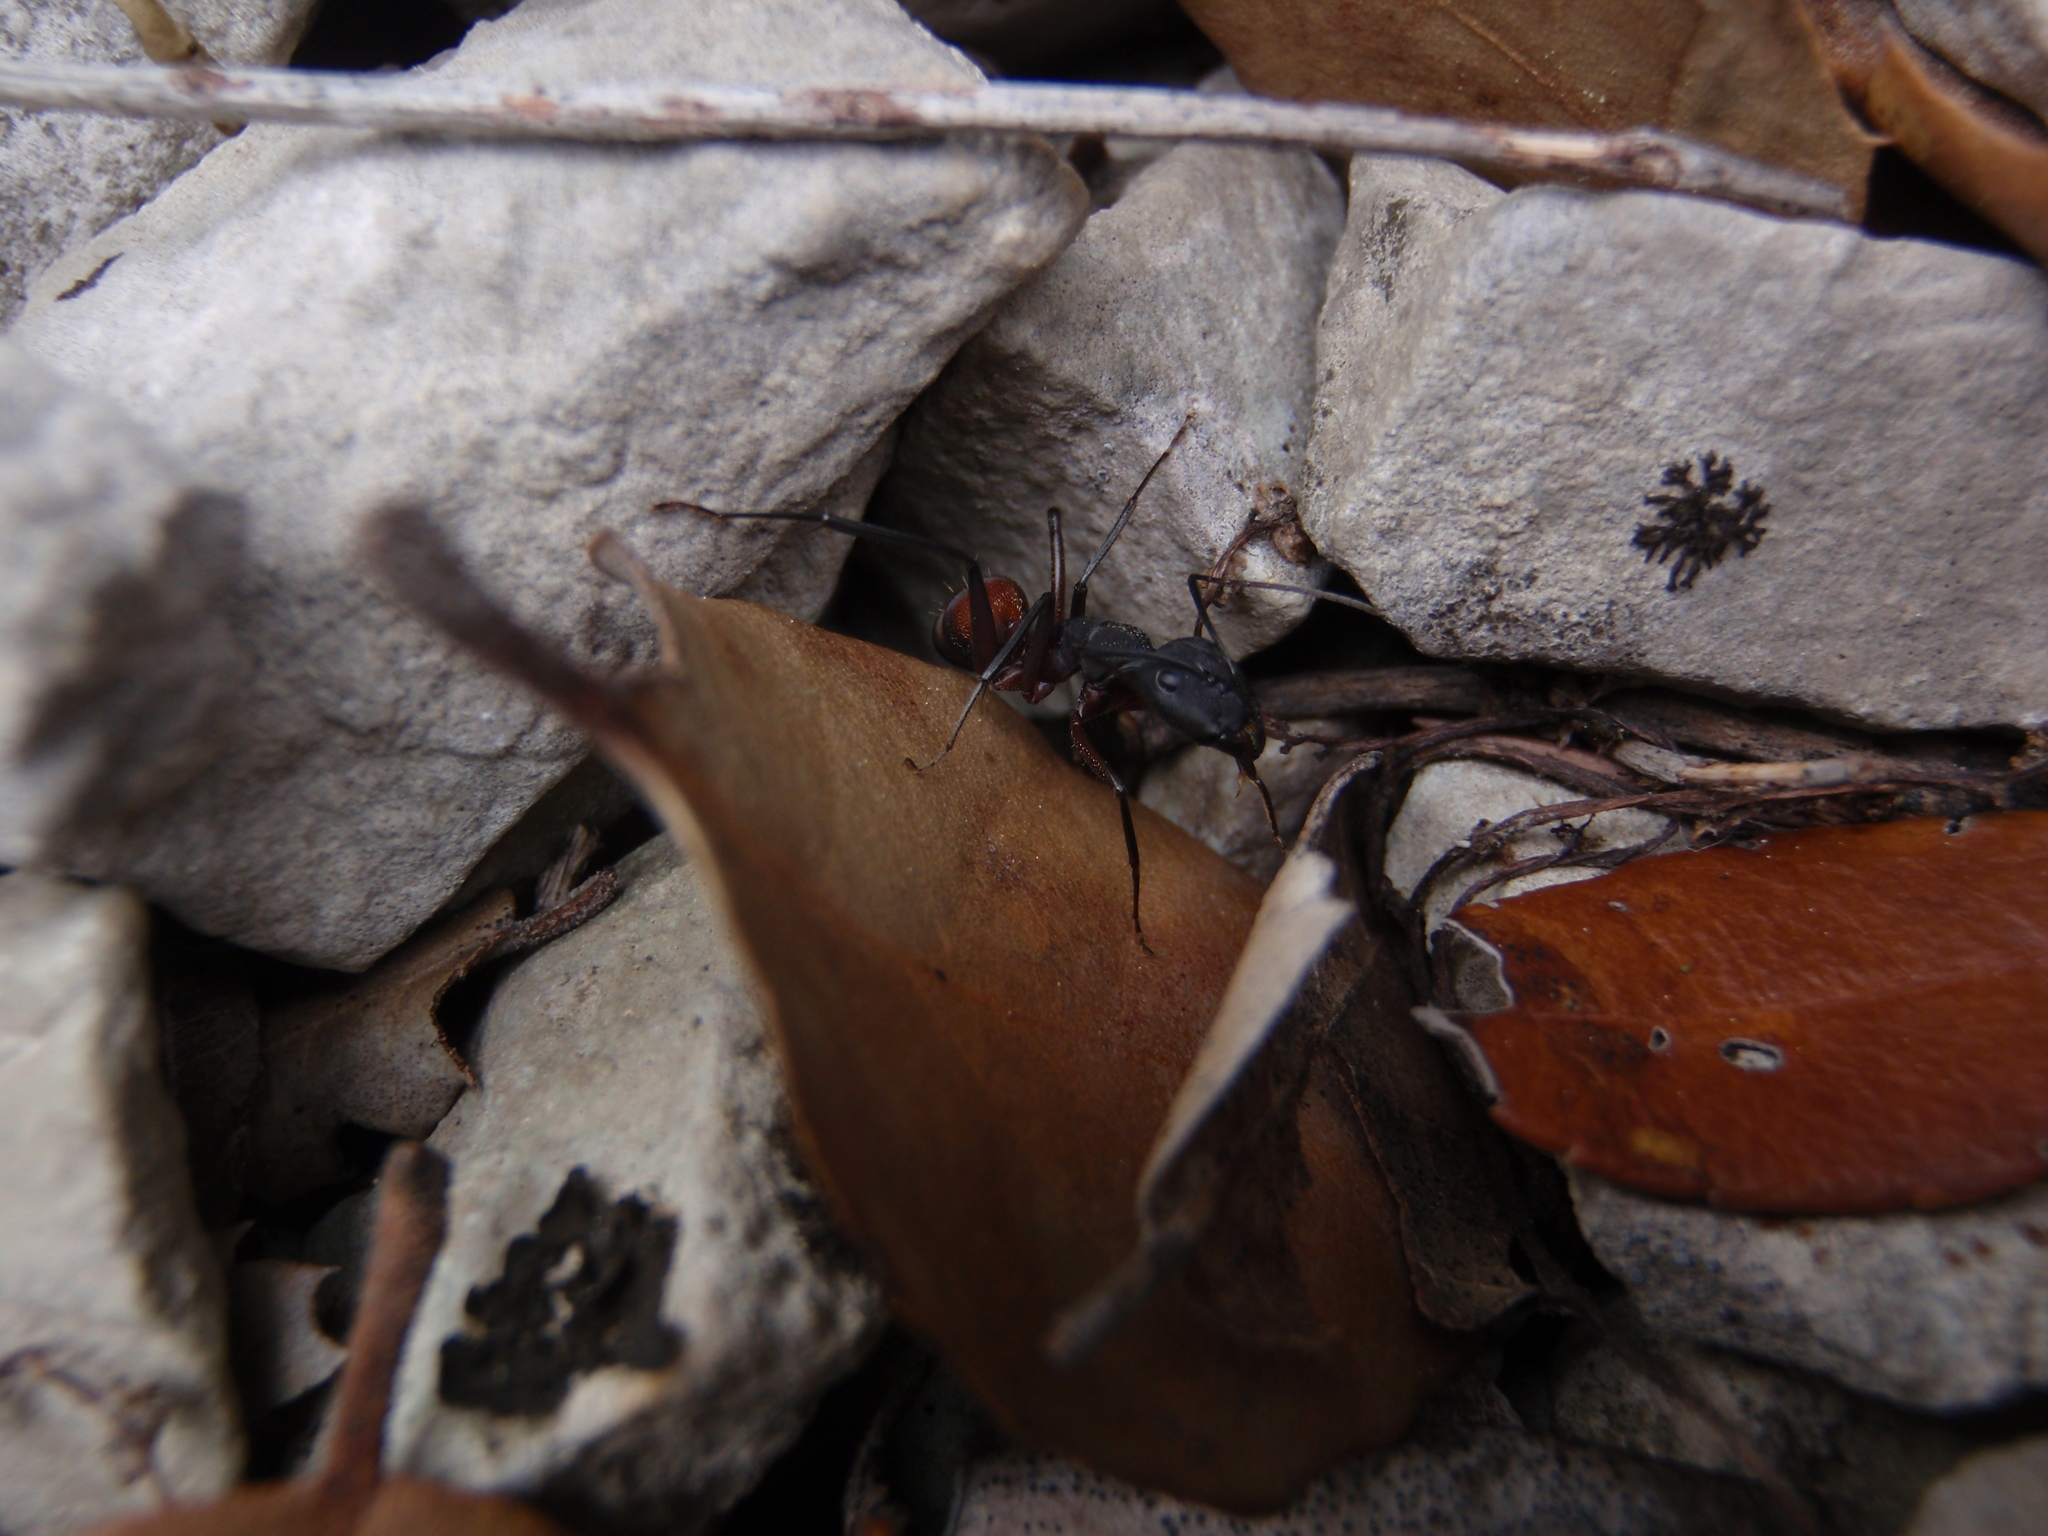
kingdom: Animalia
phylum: Arthropoda
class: Insecta
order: Hymenoptera
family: Formicidae
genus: Camponotus
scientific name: Camponotus cruentatus
